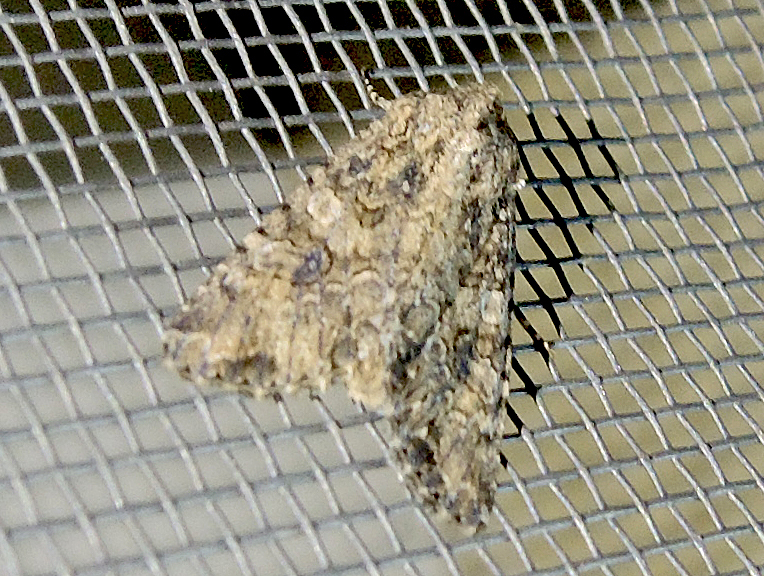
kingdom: Animalia
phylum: Arthropoda
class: Insecta
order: Lepidoptera
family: Noctuidae
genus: Anarta
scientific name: Anarta trifolii
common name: Clover cutworm moth
